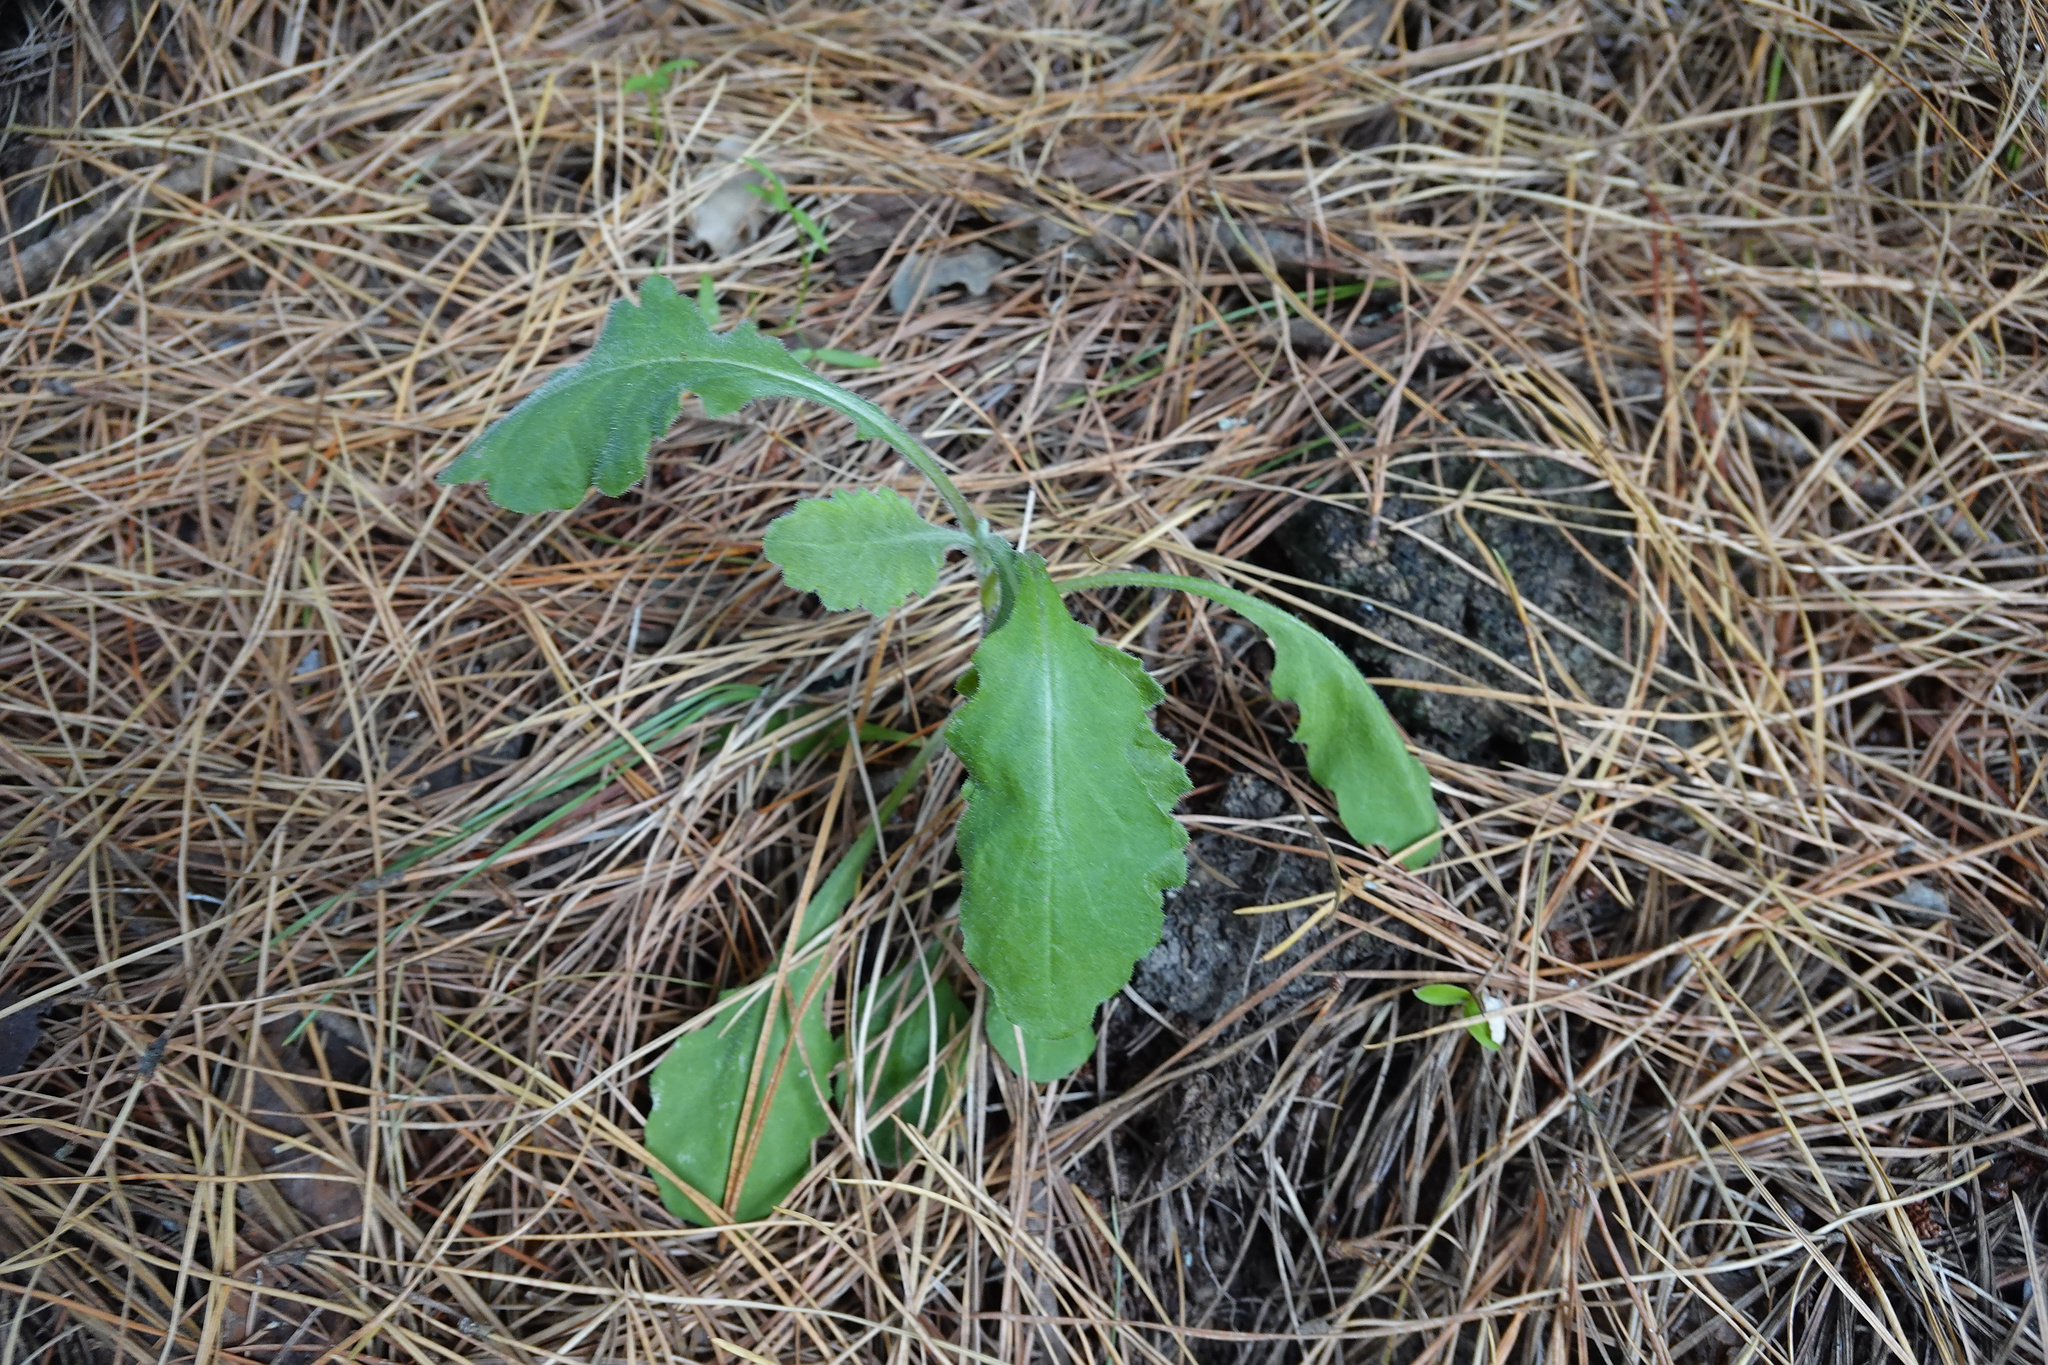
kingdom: Plantae
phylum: Tracheophyta
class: Magnoliopsida
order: Asterales
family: Asteraceae
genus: Senecio
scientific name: Senecio glomeratus
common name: Cutleaf burnweed
